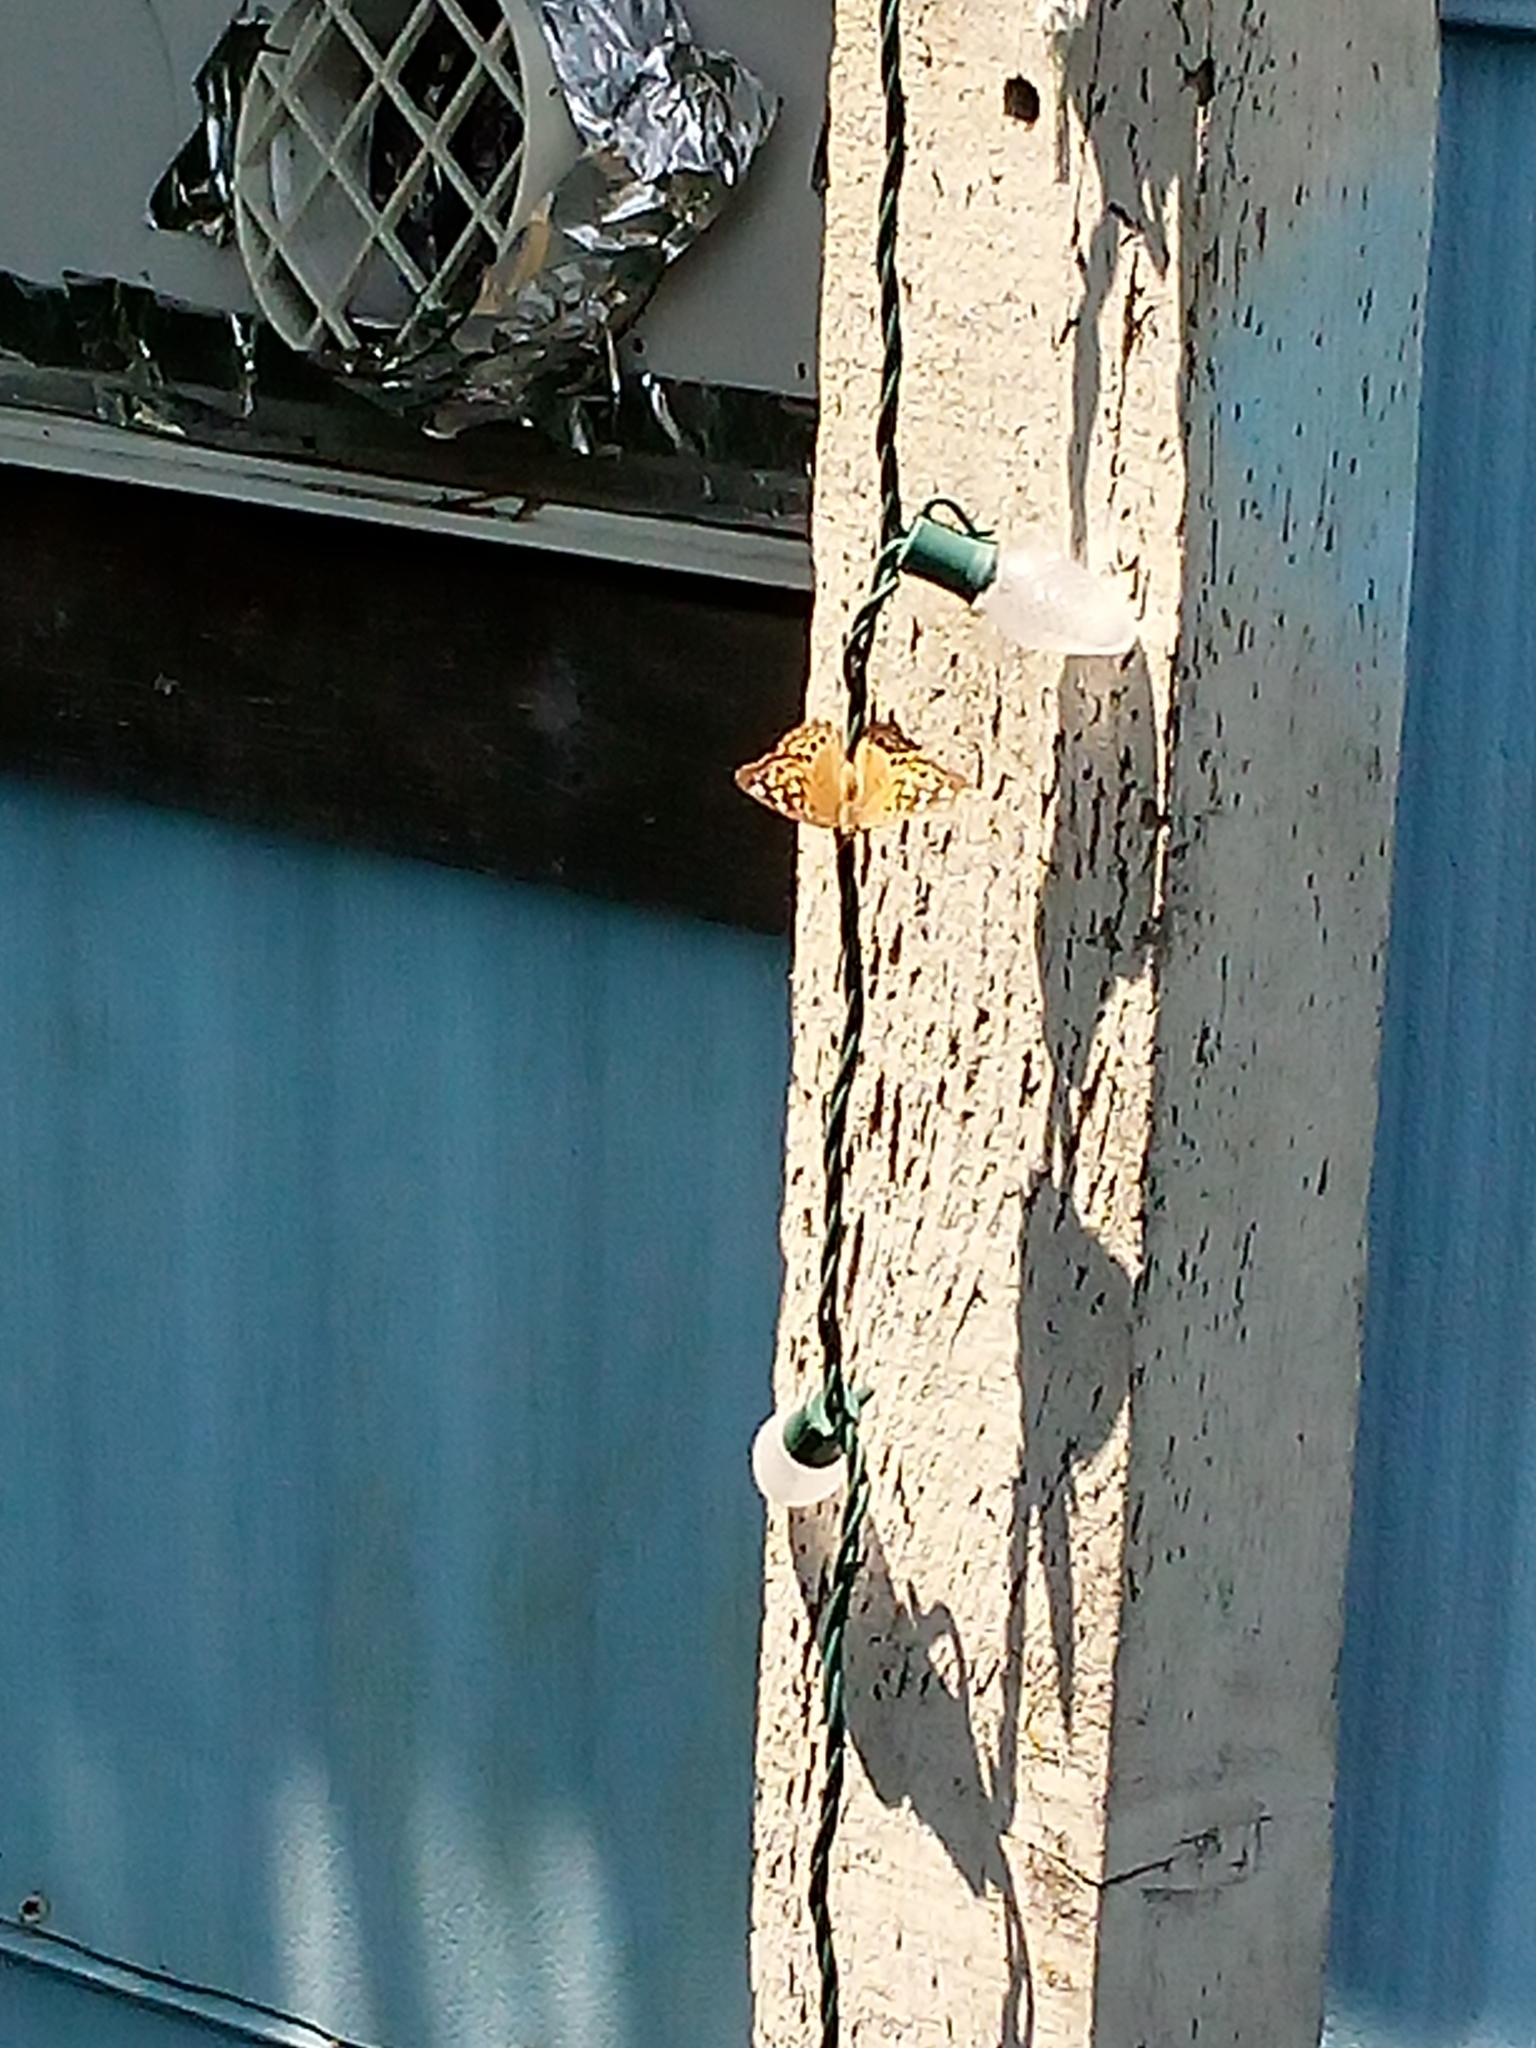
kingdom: Animalia
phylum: Arthropoda
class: Insecta
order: Lepidoptera
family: Nymphalidae
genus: Asterocampa
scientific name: Asterocampa celtis
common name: Hackberry emperor
